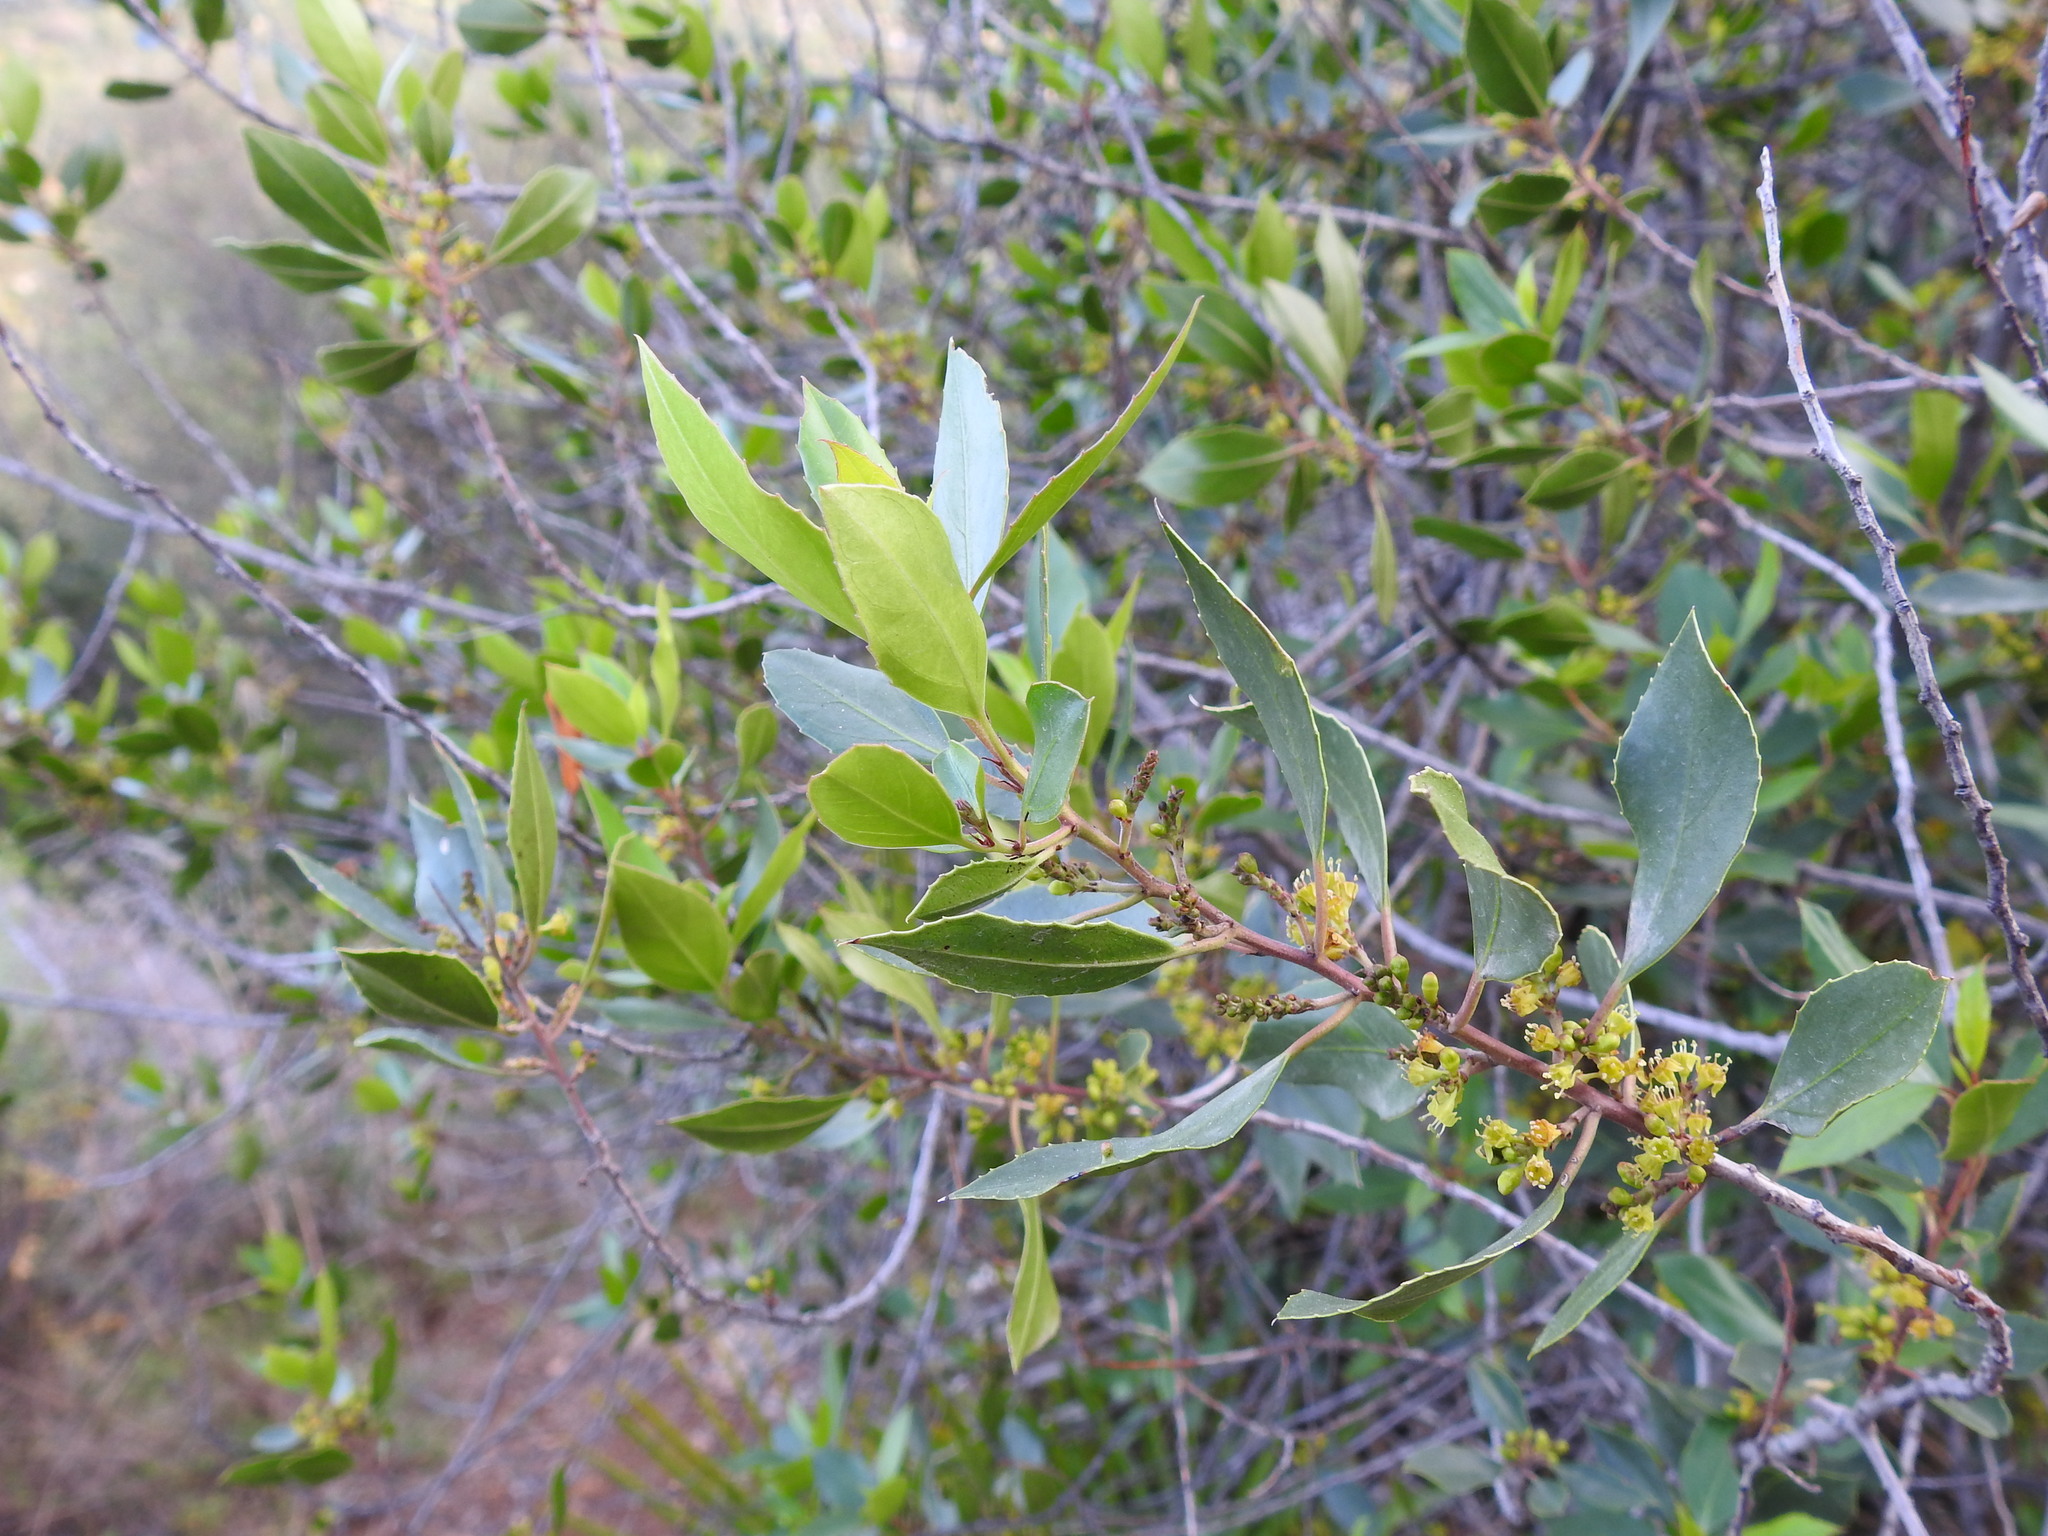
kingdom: Plantae
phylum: Tracheophyta
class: Magnoliopsida
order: Rosales
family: Rhamnaceae
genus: Rhamnus
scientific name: Rhamnus alaternus
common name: Mediterranean buckthorn
